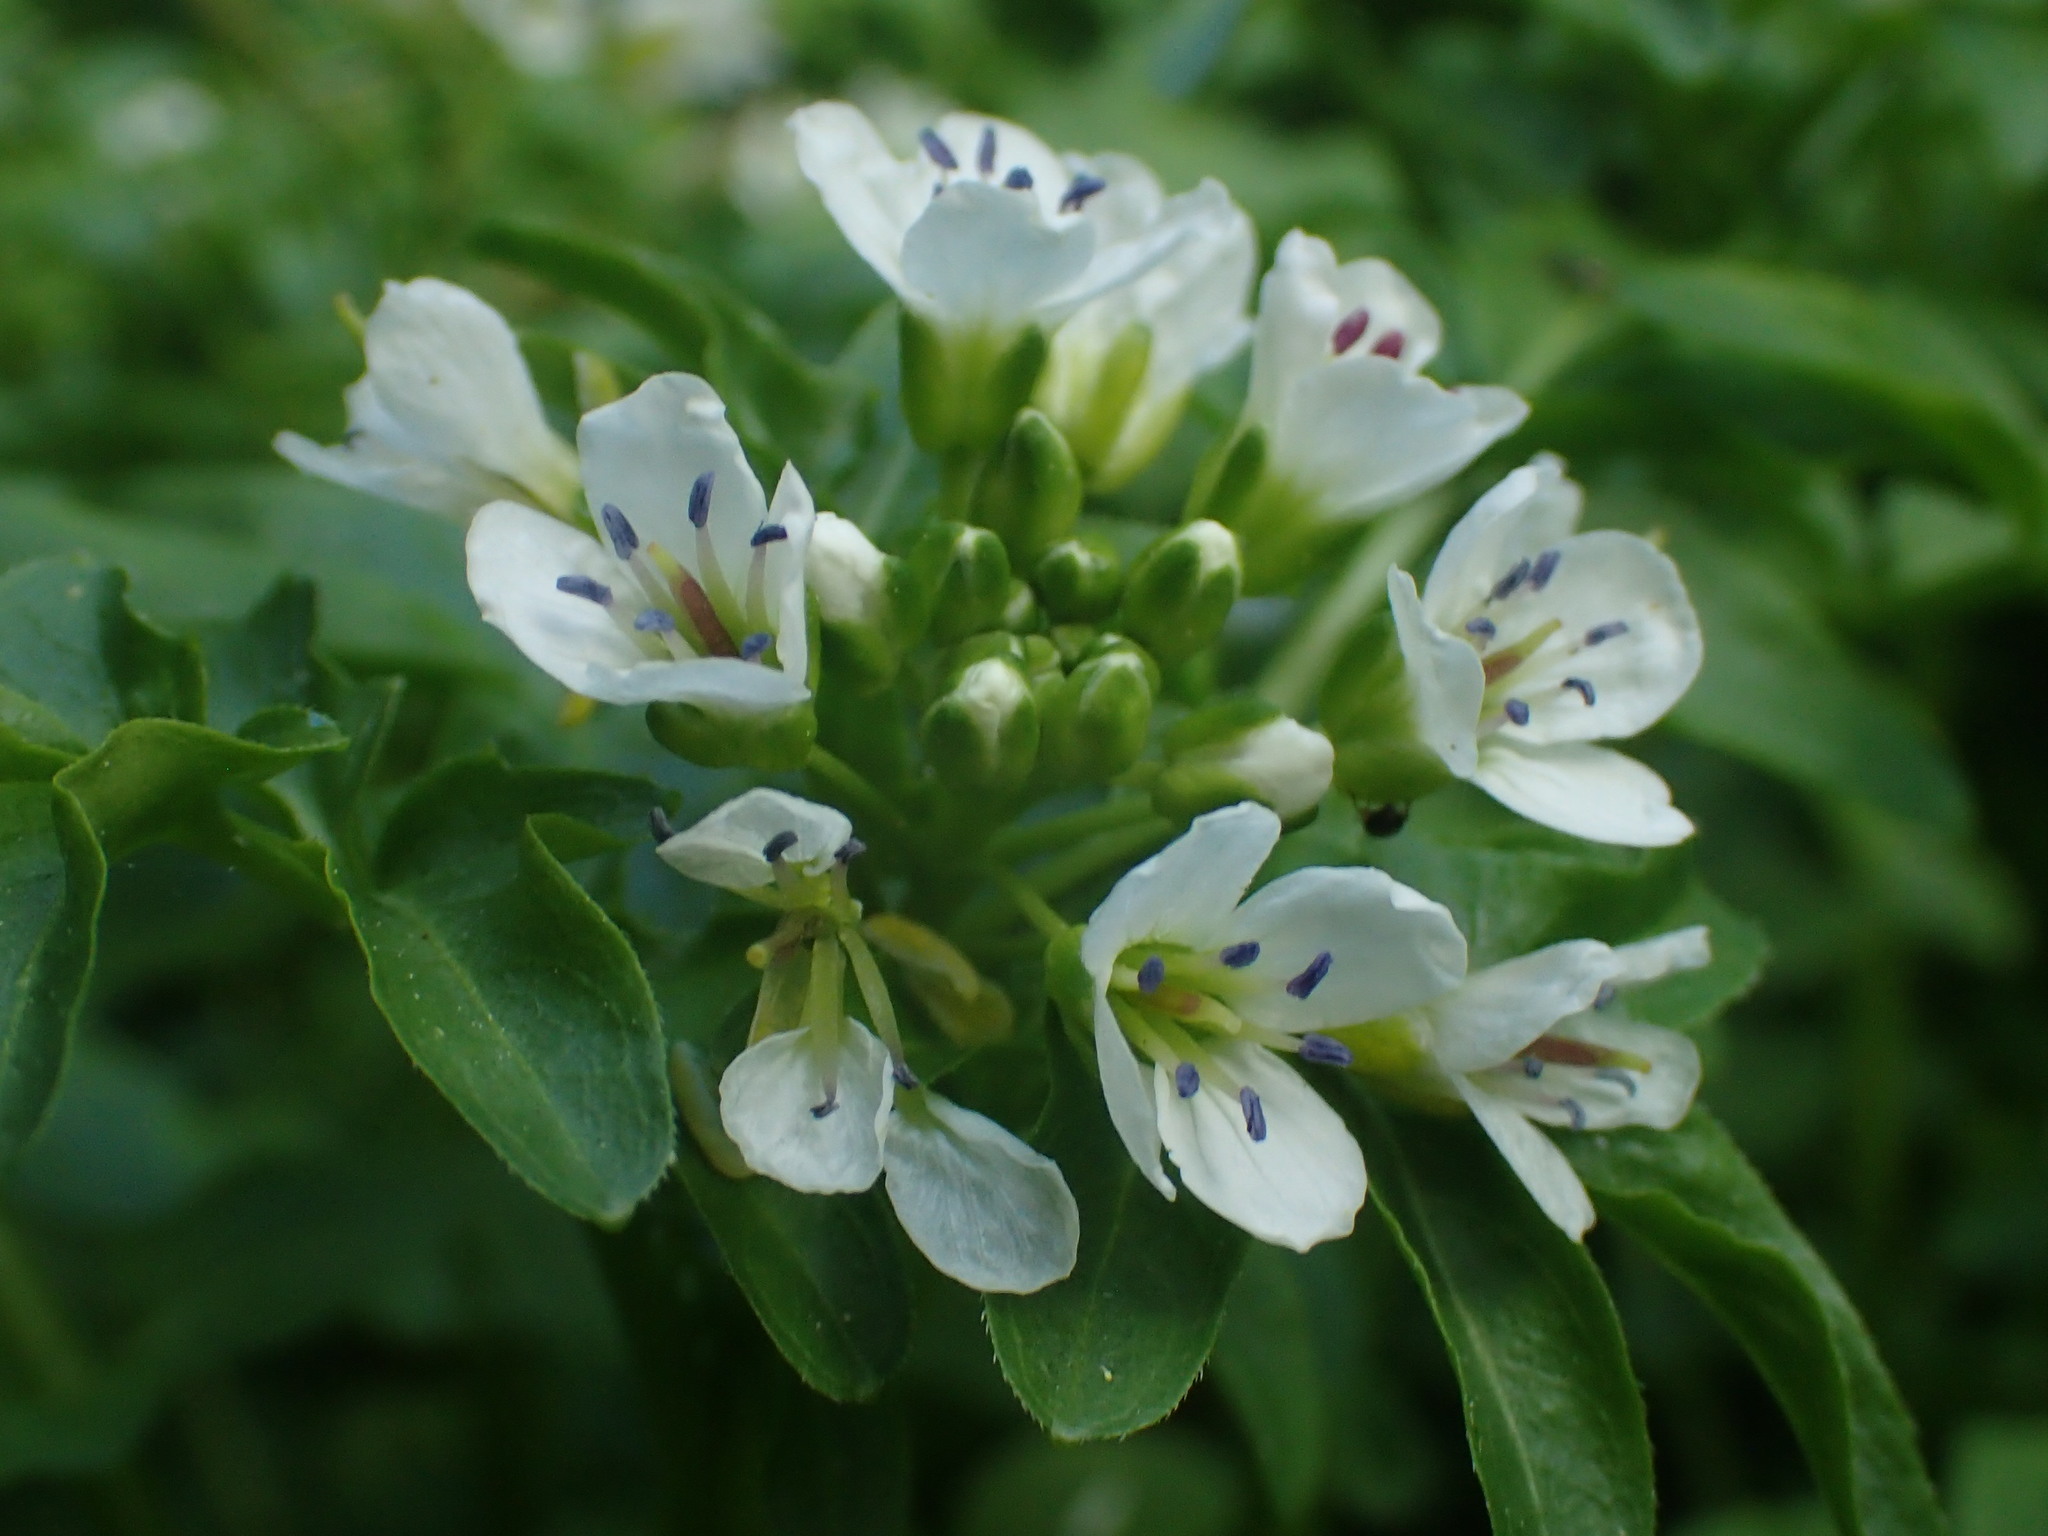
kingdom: Plantae
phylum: Tracheophyta
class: Magnoliopsida
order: Brassicales
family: Brassicaceae
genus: Cardamine
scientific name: Cardamine amara
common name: Large bitter-cress
